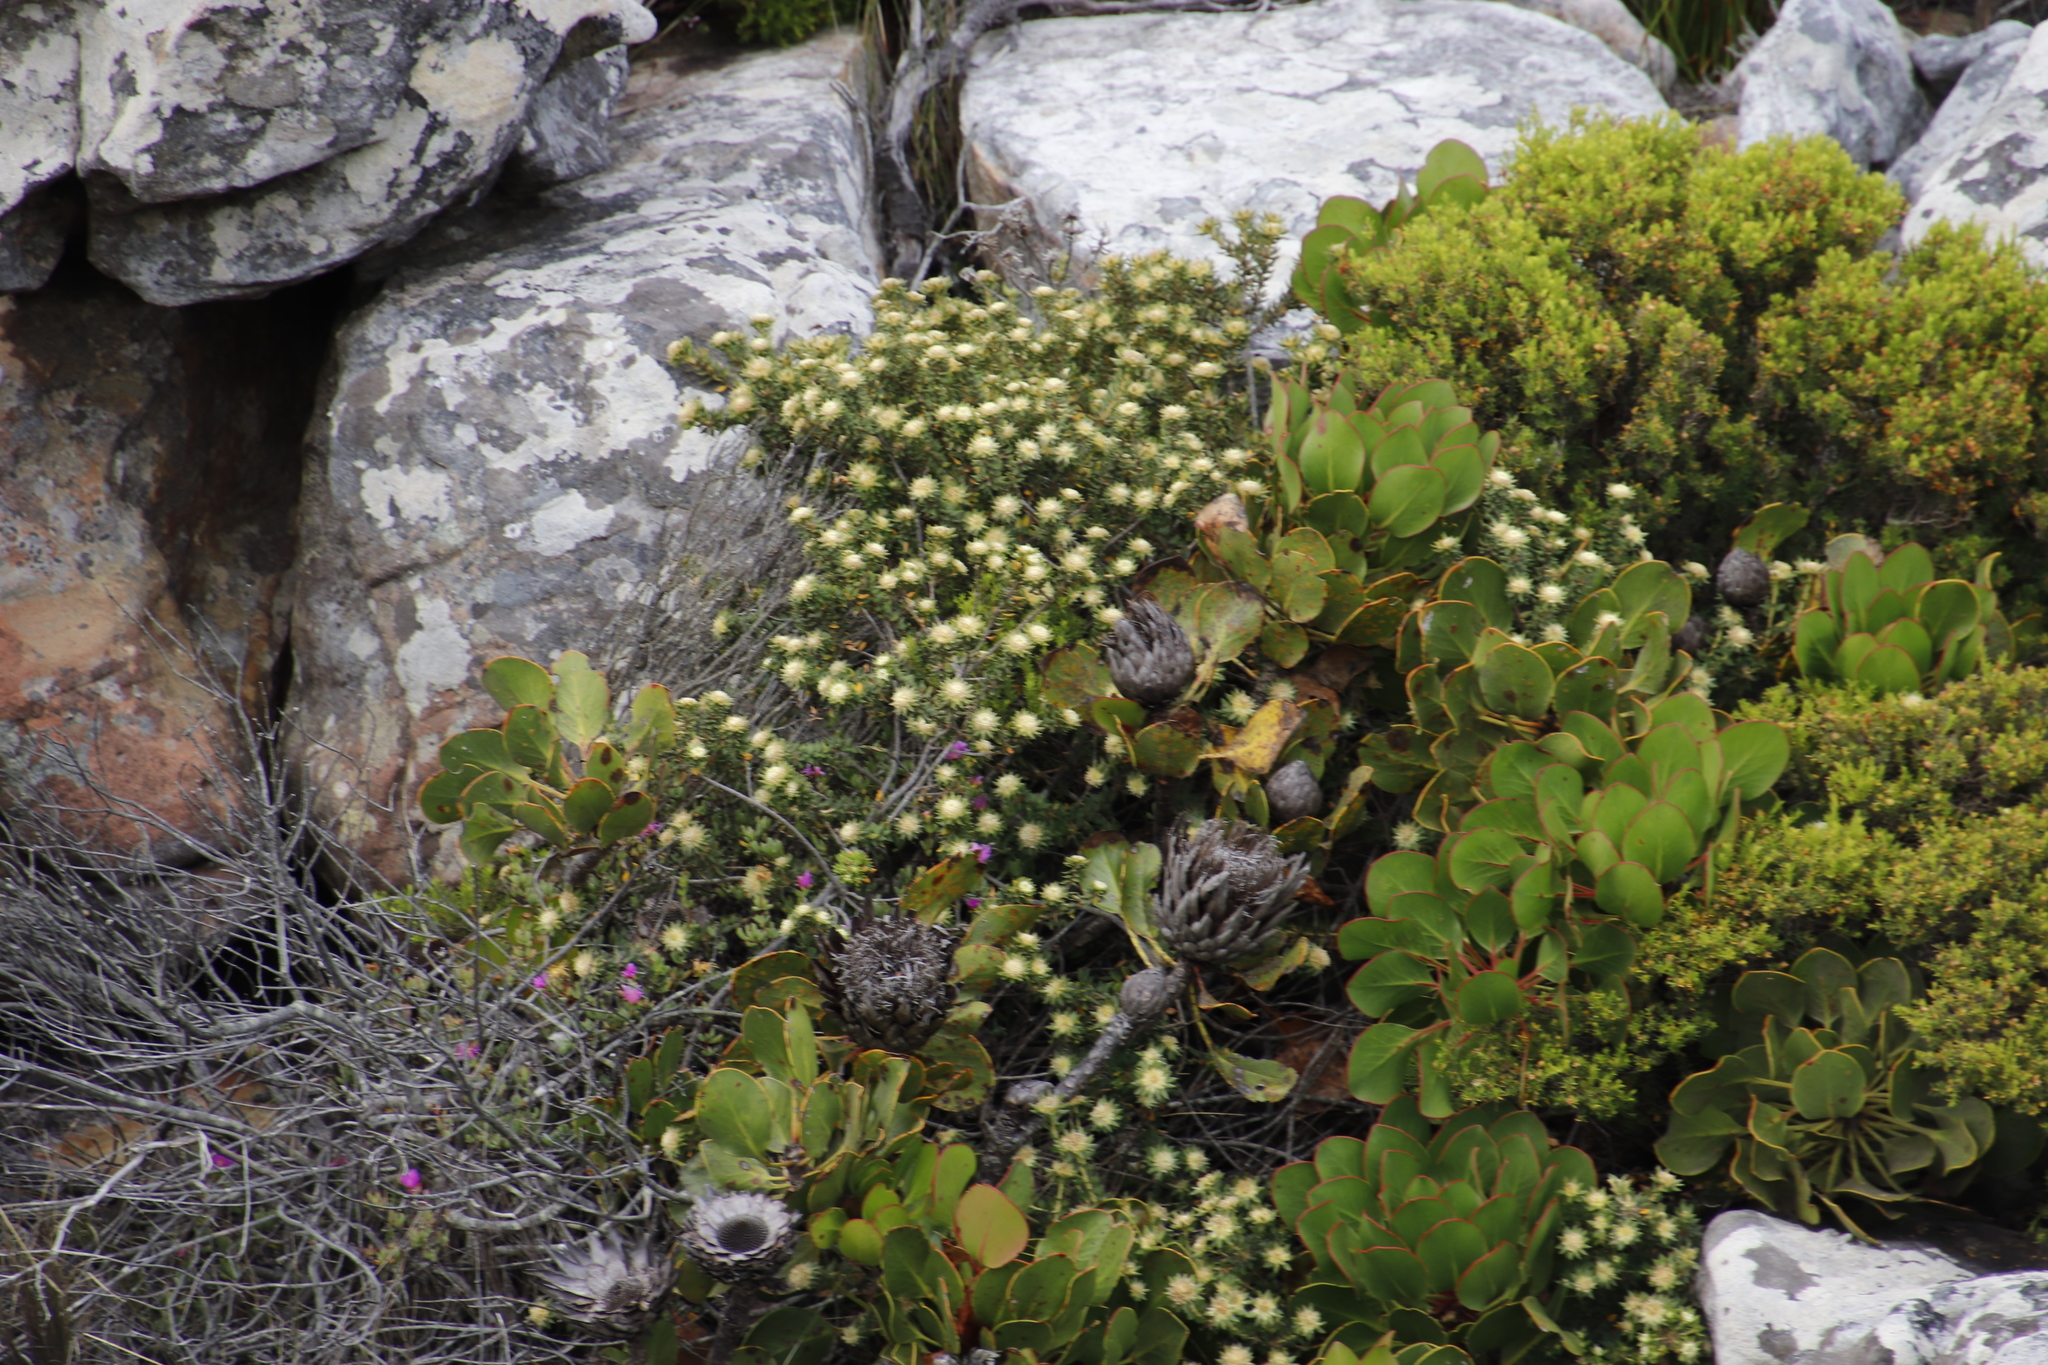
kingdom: Plantae
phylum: Tracheophyta
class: Magnoliopsida
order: Proteales
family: Proteaceae
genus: Protea
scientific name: Protea cynaroides
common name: King protea
